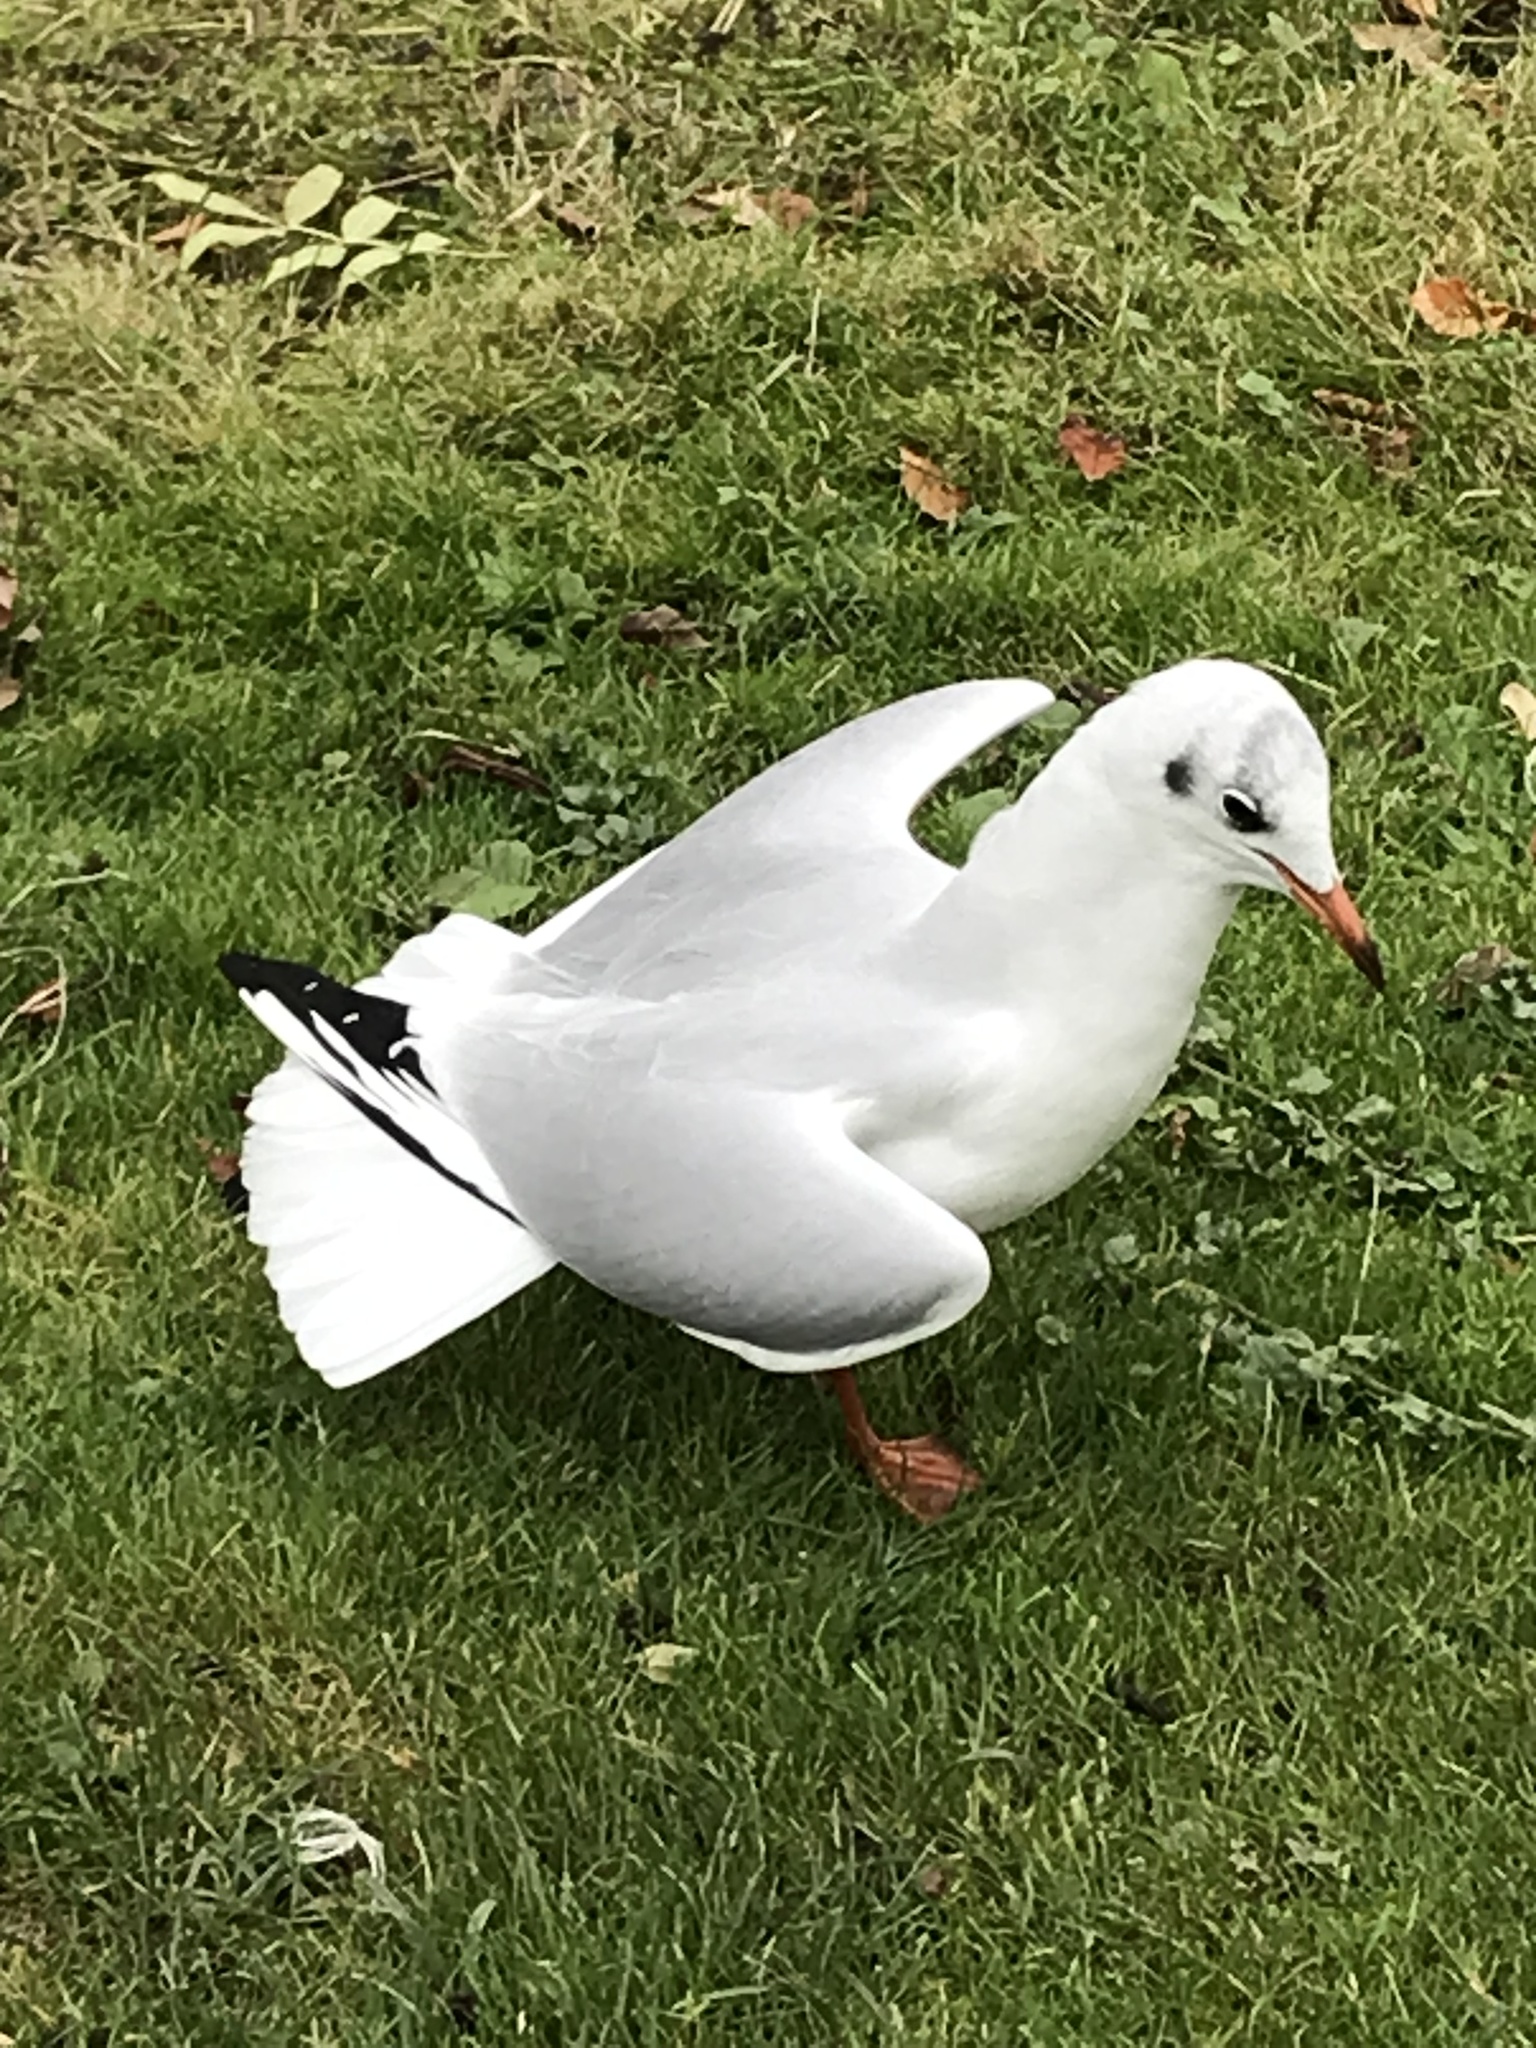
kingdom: Animalia
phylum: Chordata
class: Aves
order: Charadriiformes
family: Laridae
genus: Chroicocephalus
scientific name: Chroicocephalus ridibundus
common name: Black-headed gull
